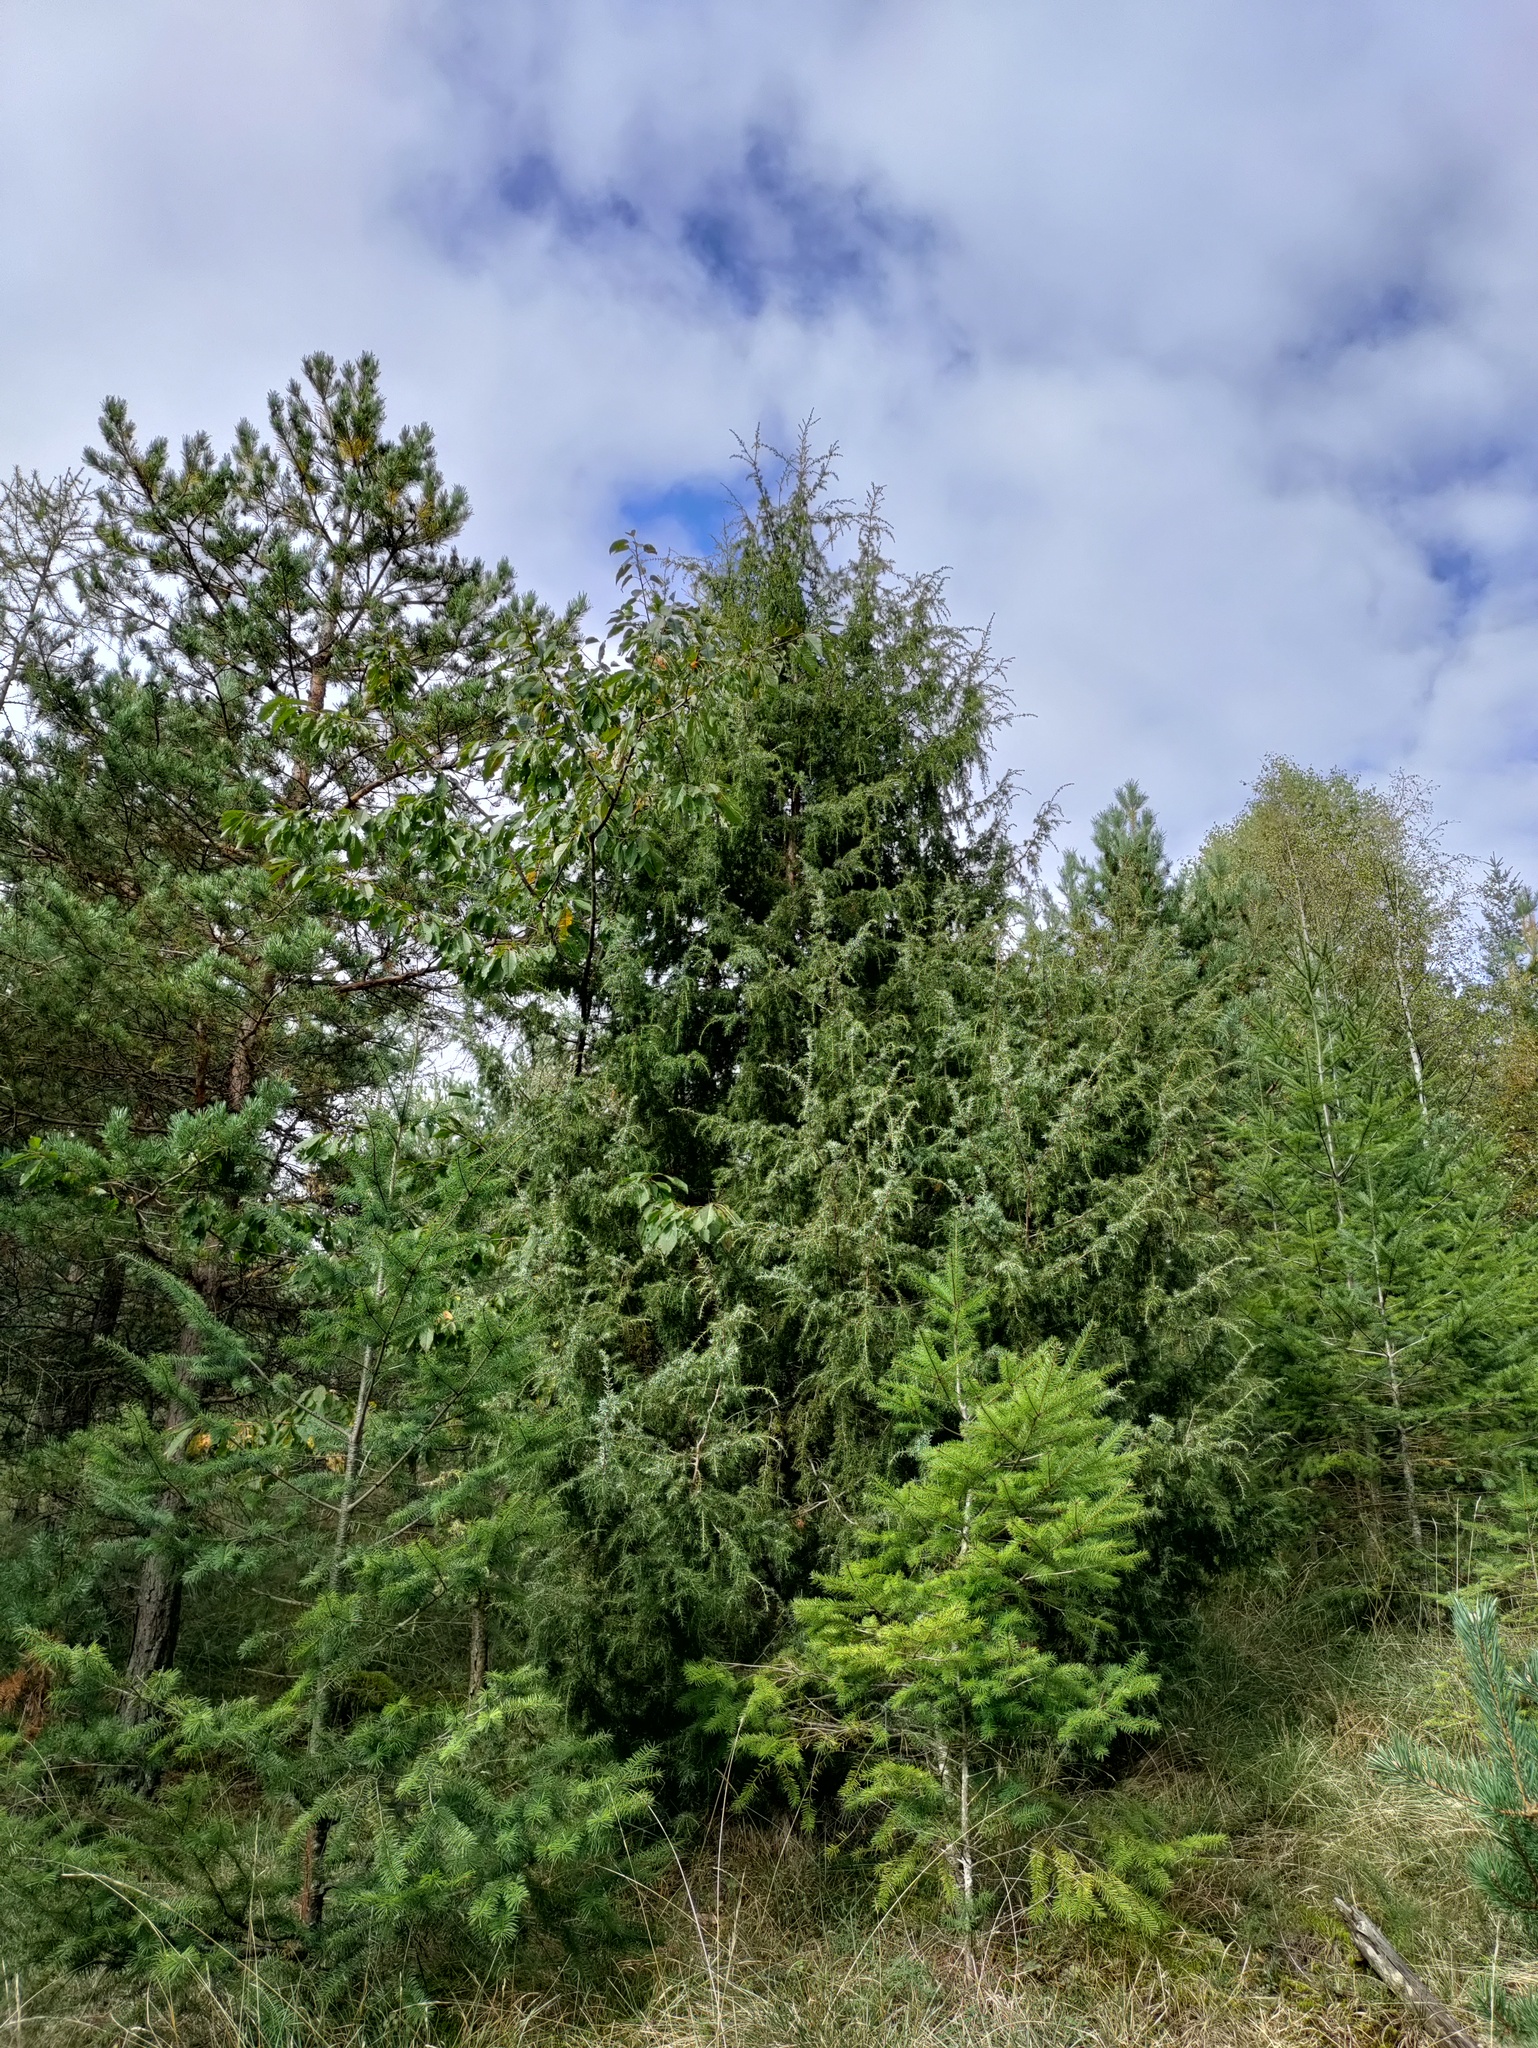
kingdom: Plantae
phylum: Tracheophyta
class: Pinopsida
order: Pinales
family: Cupressaceae
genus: Juniperus
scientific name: Juniperus communis
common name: Common juniper
